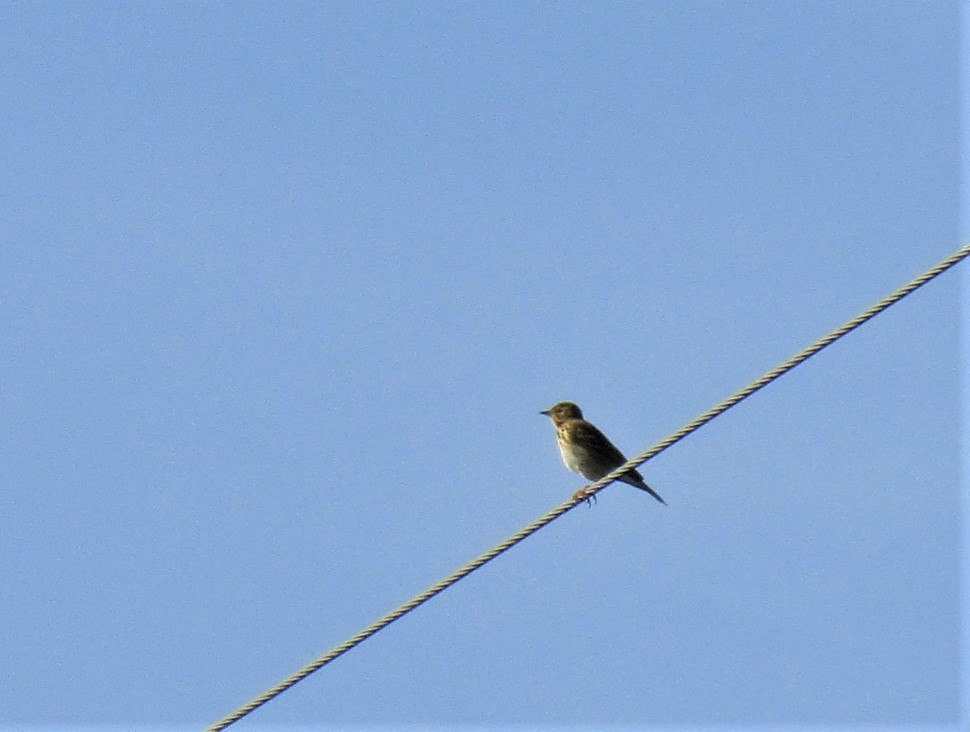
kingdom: Animalia
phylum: Chordata
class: Aves
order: Passeriformes
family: Motacillidae
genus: Anthus
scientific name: Anthus trivialis
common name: Tree pipit
